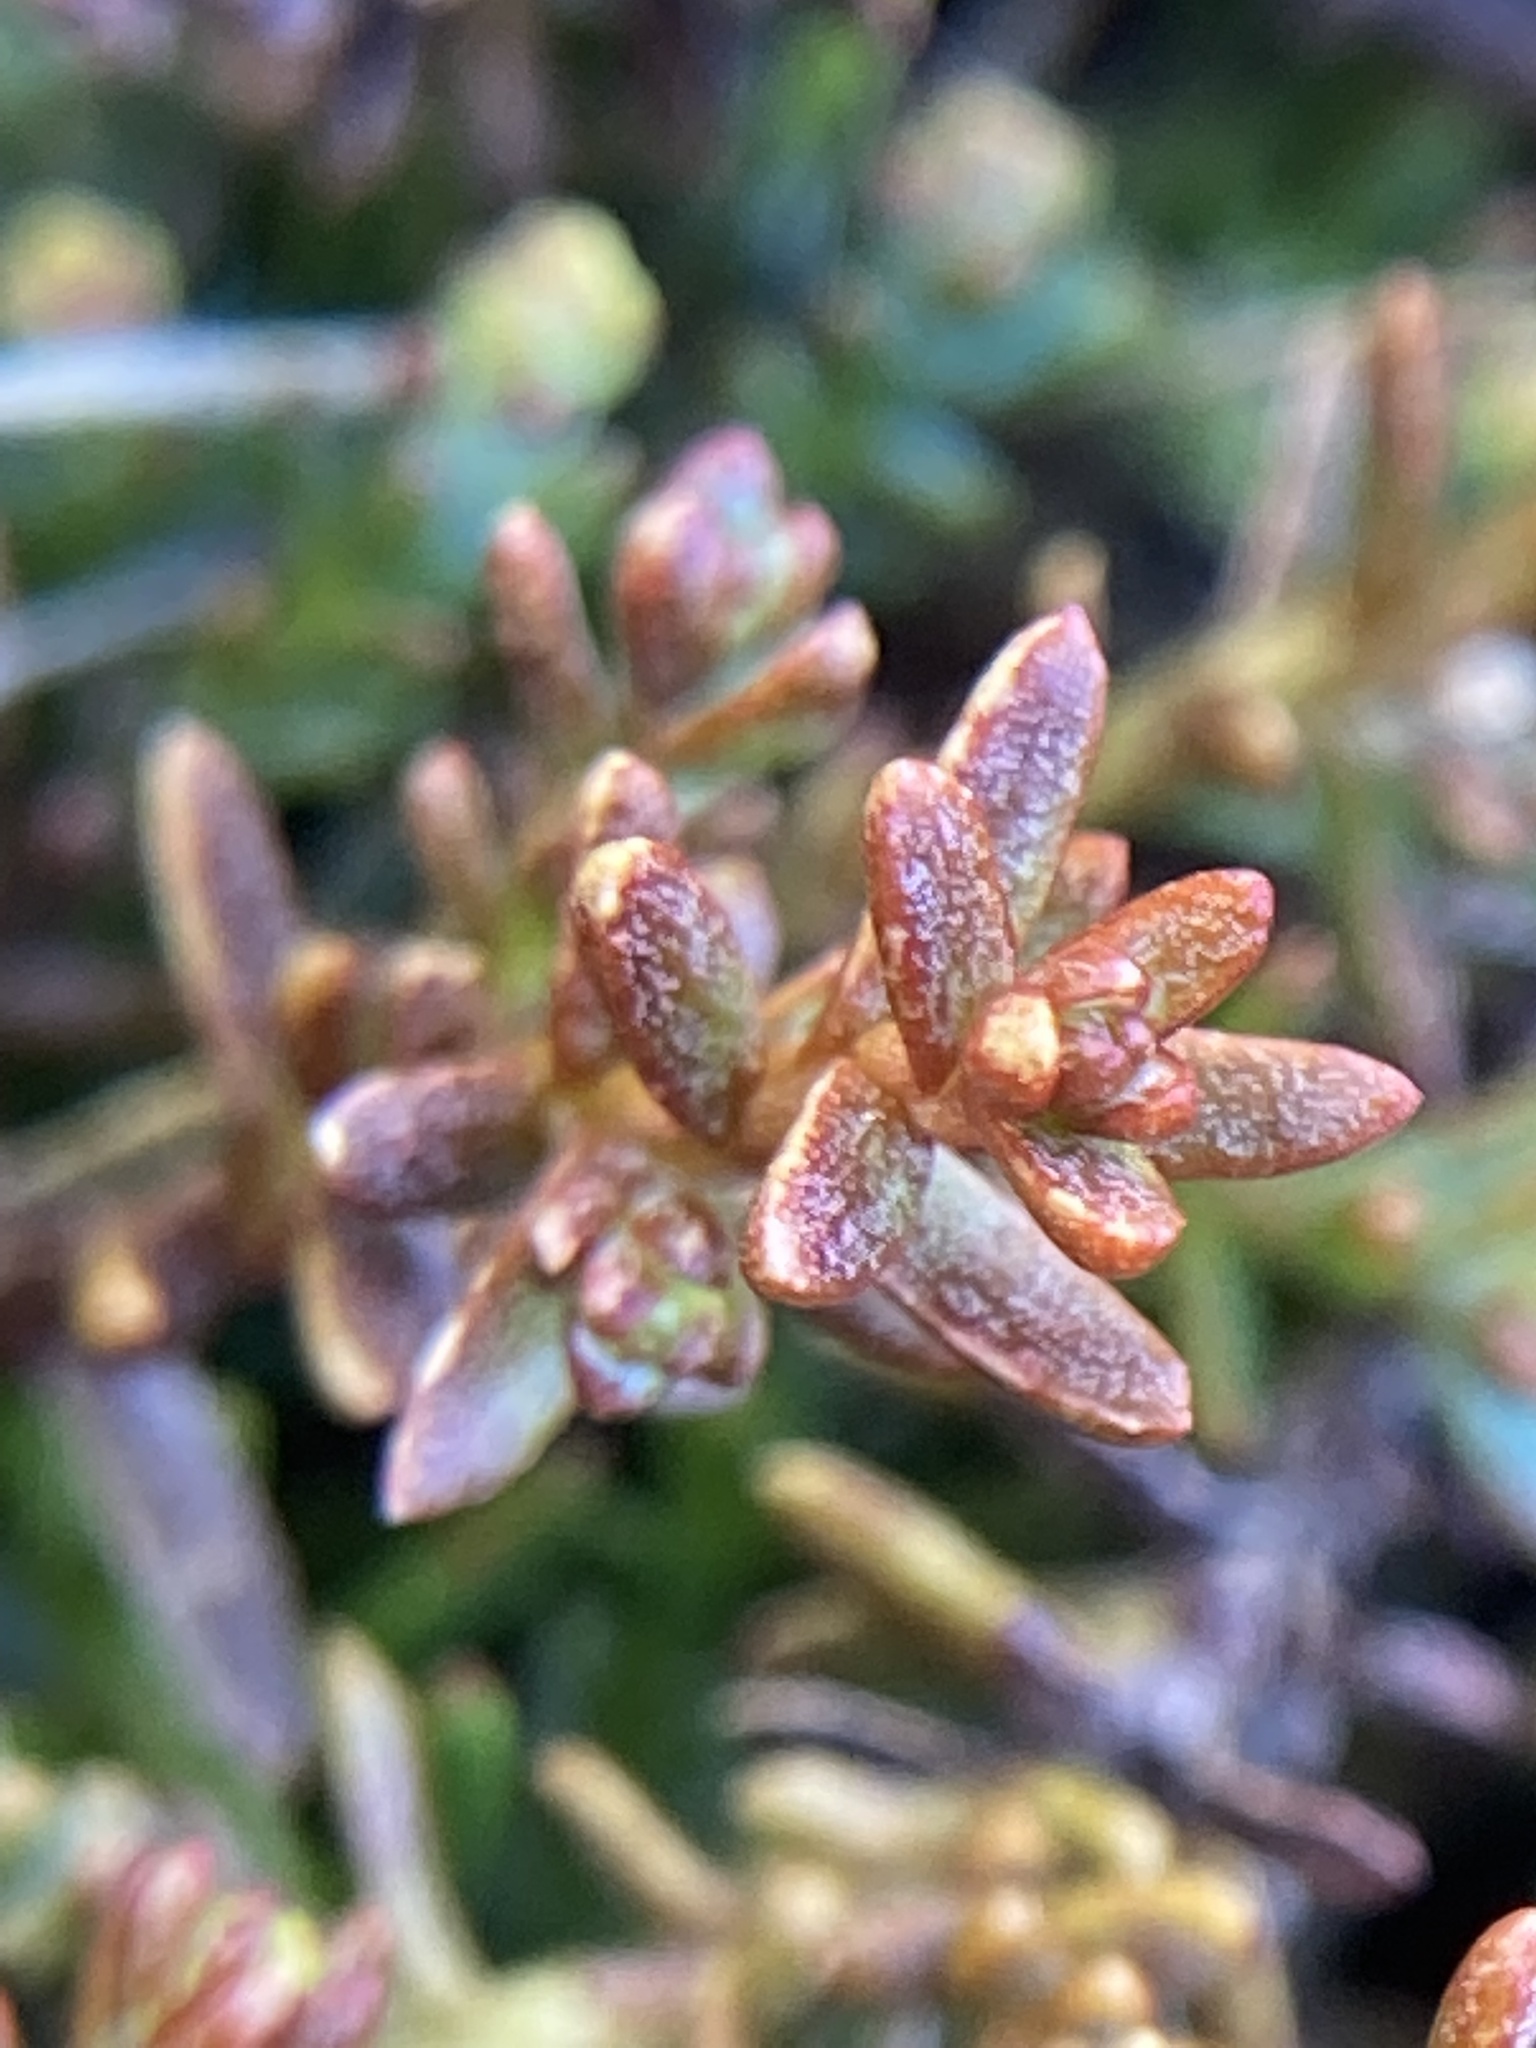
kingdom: Plantae
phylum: Tracheophyta
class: Pinopsida
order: Pinales
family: Podocarpaceae
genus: Lepidothamnus
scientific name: Lepidothamnus laxifolius
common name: Pygmy pine
